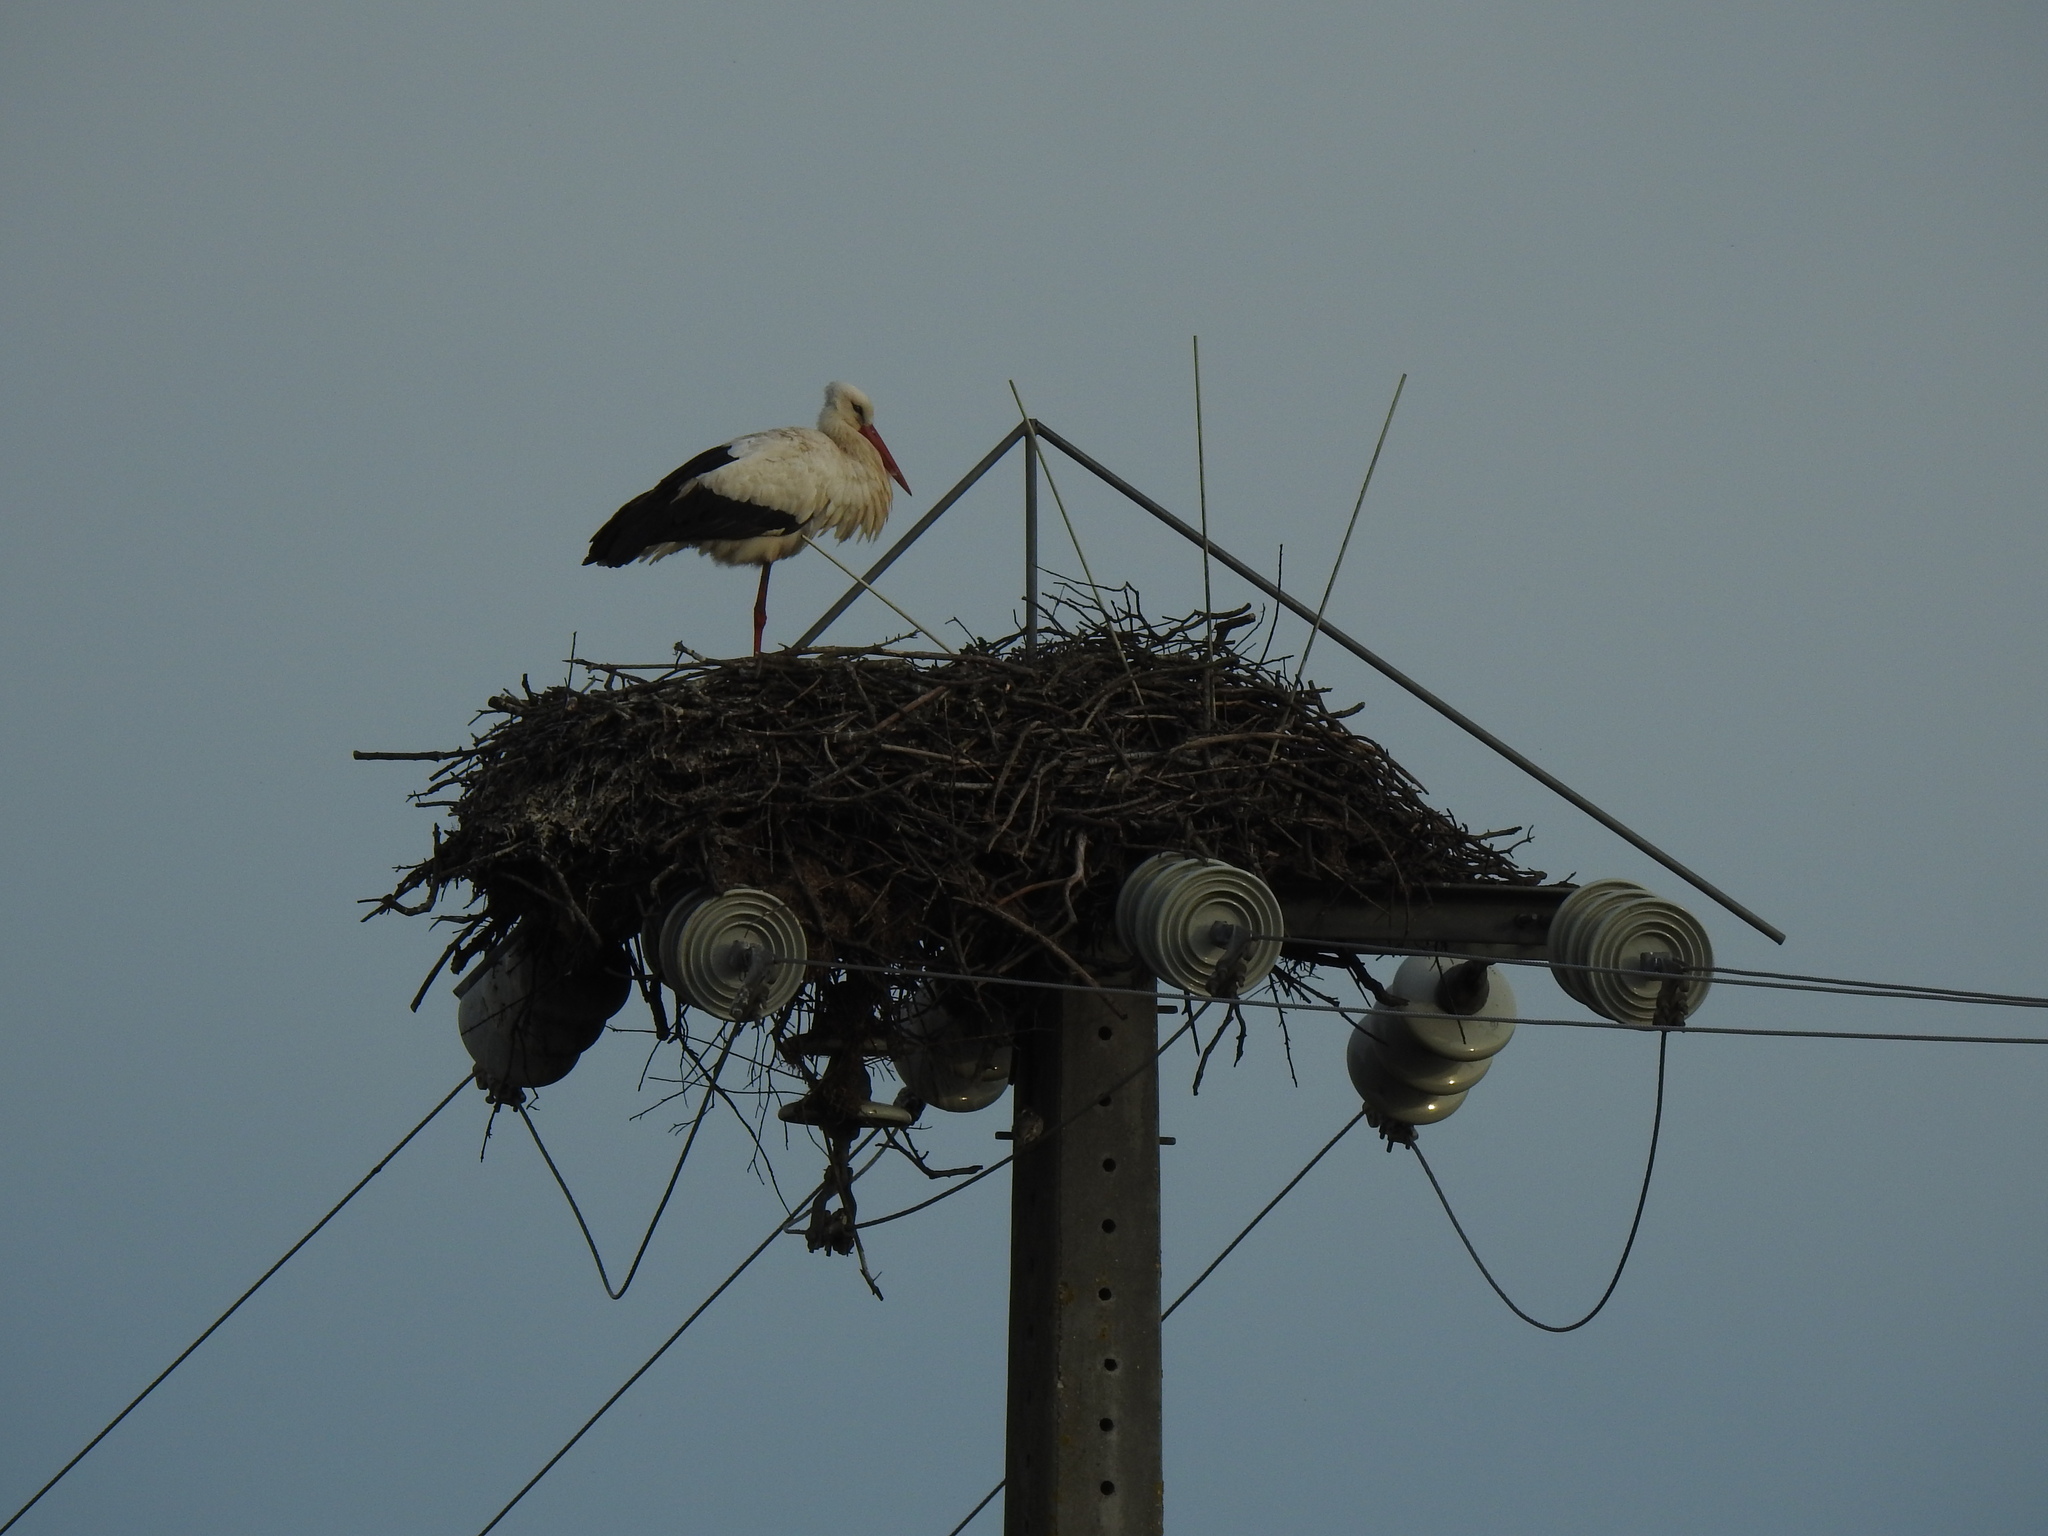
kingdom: Animalia
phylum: Chordata
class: Aves
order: Ciconiiformes
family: Ciconiidae
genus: Ciconia
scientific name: Ciconia ciconia
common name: White stork
